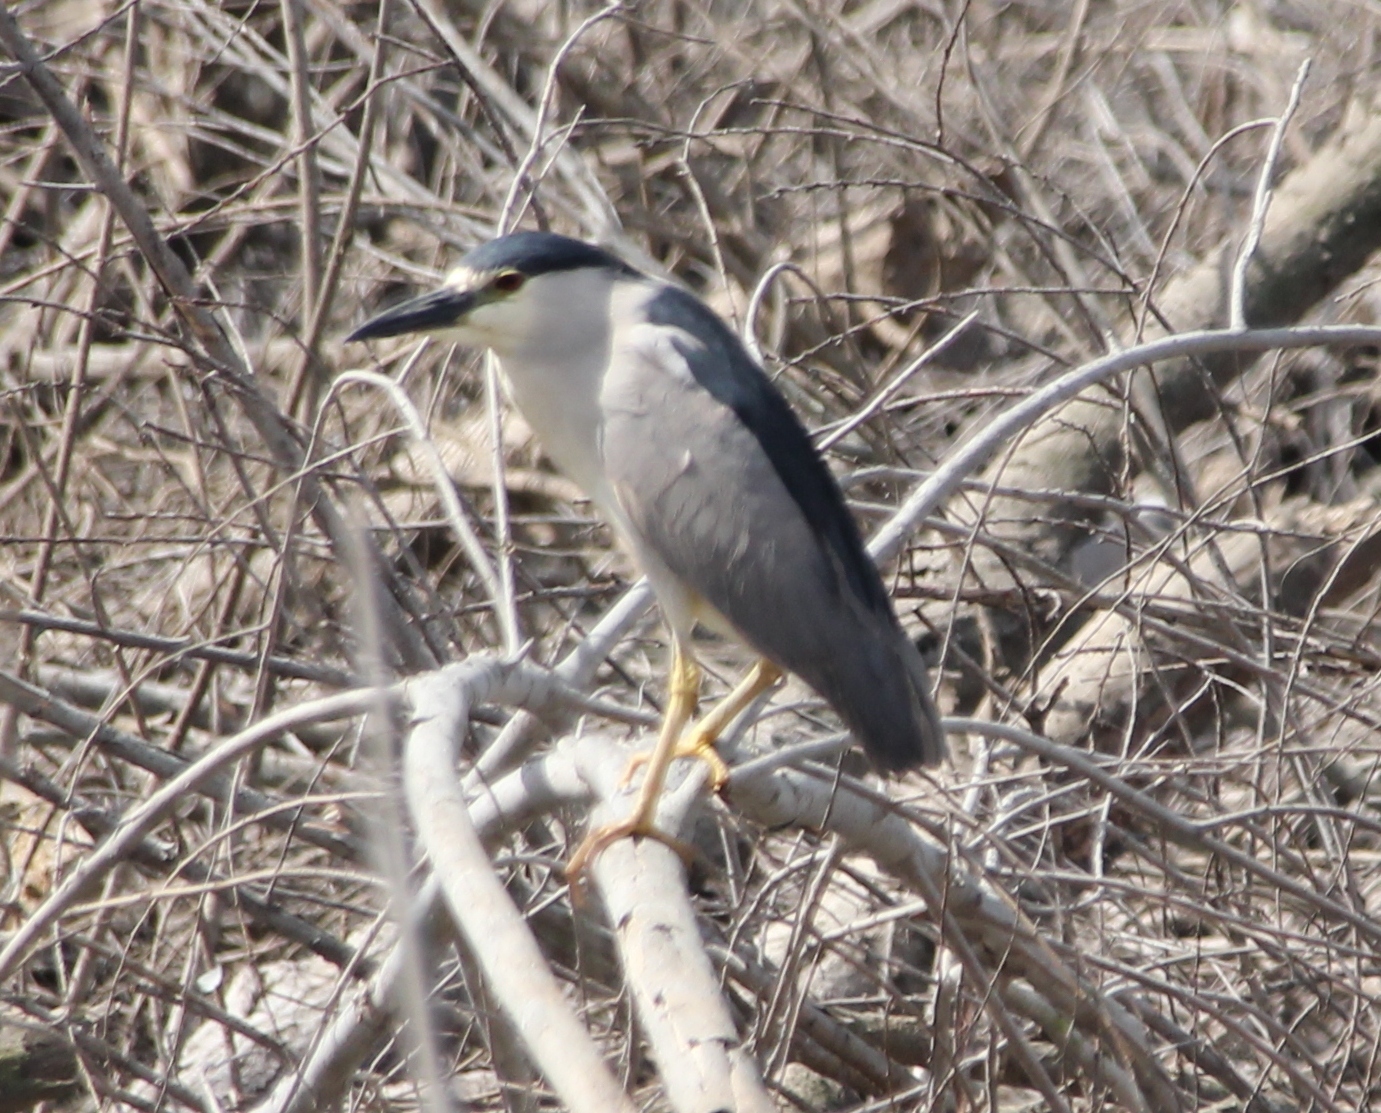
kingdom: Animalia
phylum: Chordata
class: Aves
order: Pelecaniformes
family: Ardeidae
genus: Nycticorax
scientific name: Nycticorax nycticorax
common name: Black-crowned night heron
